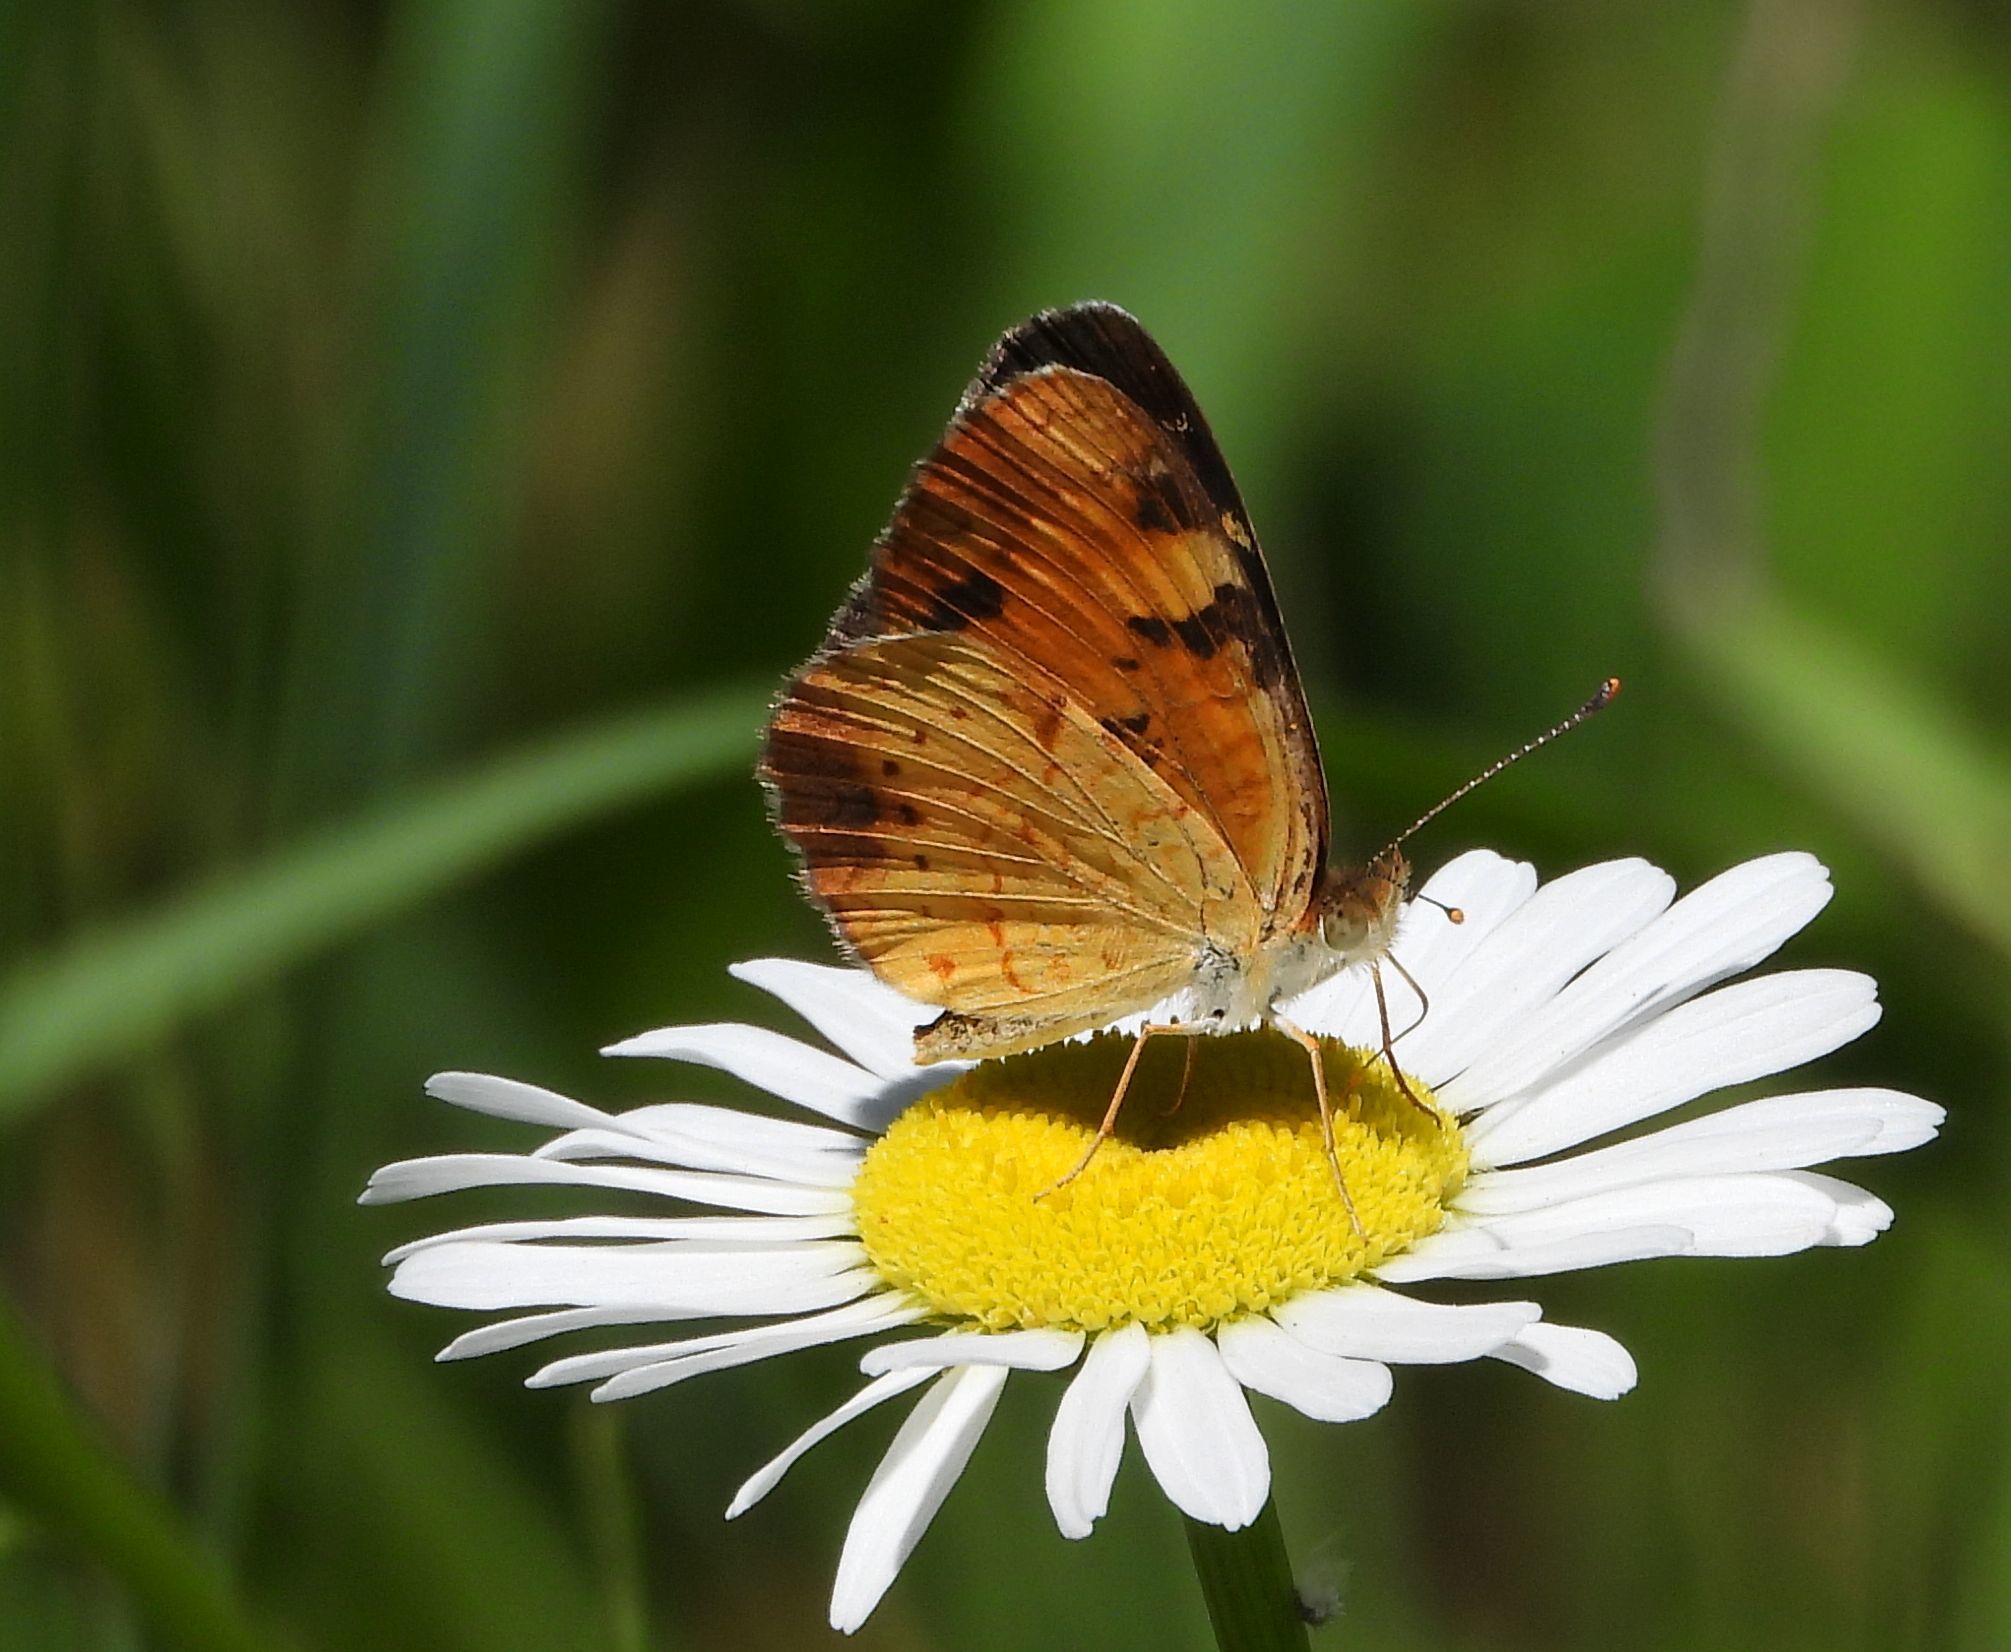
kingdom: Animalia
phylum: Arthropoda
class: Insecta
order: Lepidoptera
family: Nymphalidae
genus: Phyciodes
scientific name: Phyciodes tharos
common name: Pearl crescent
